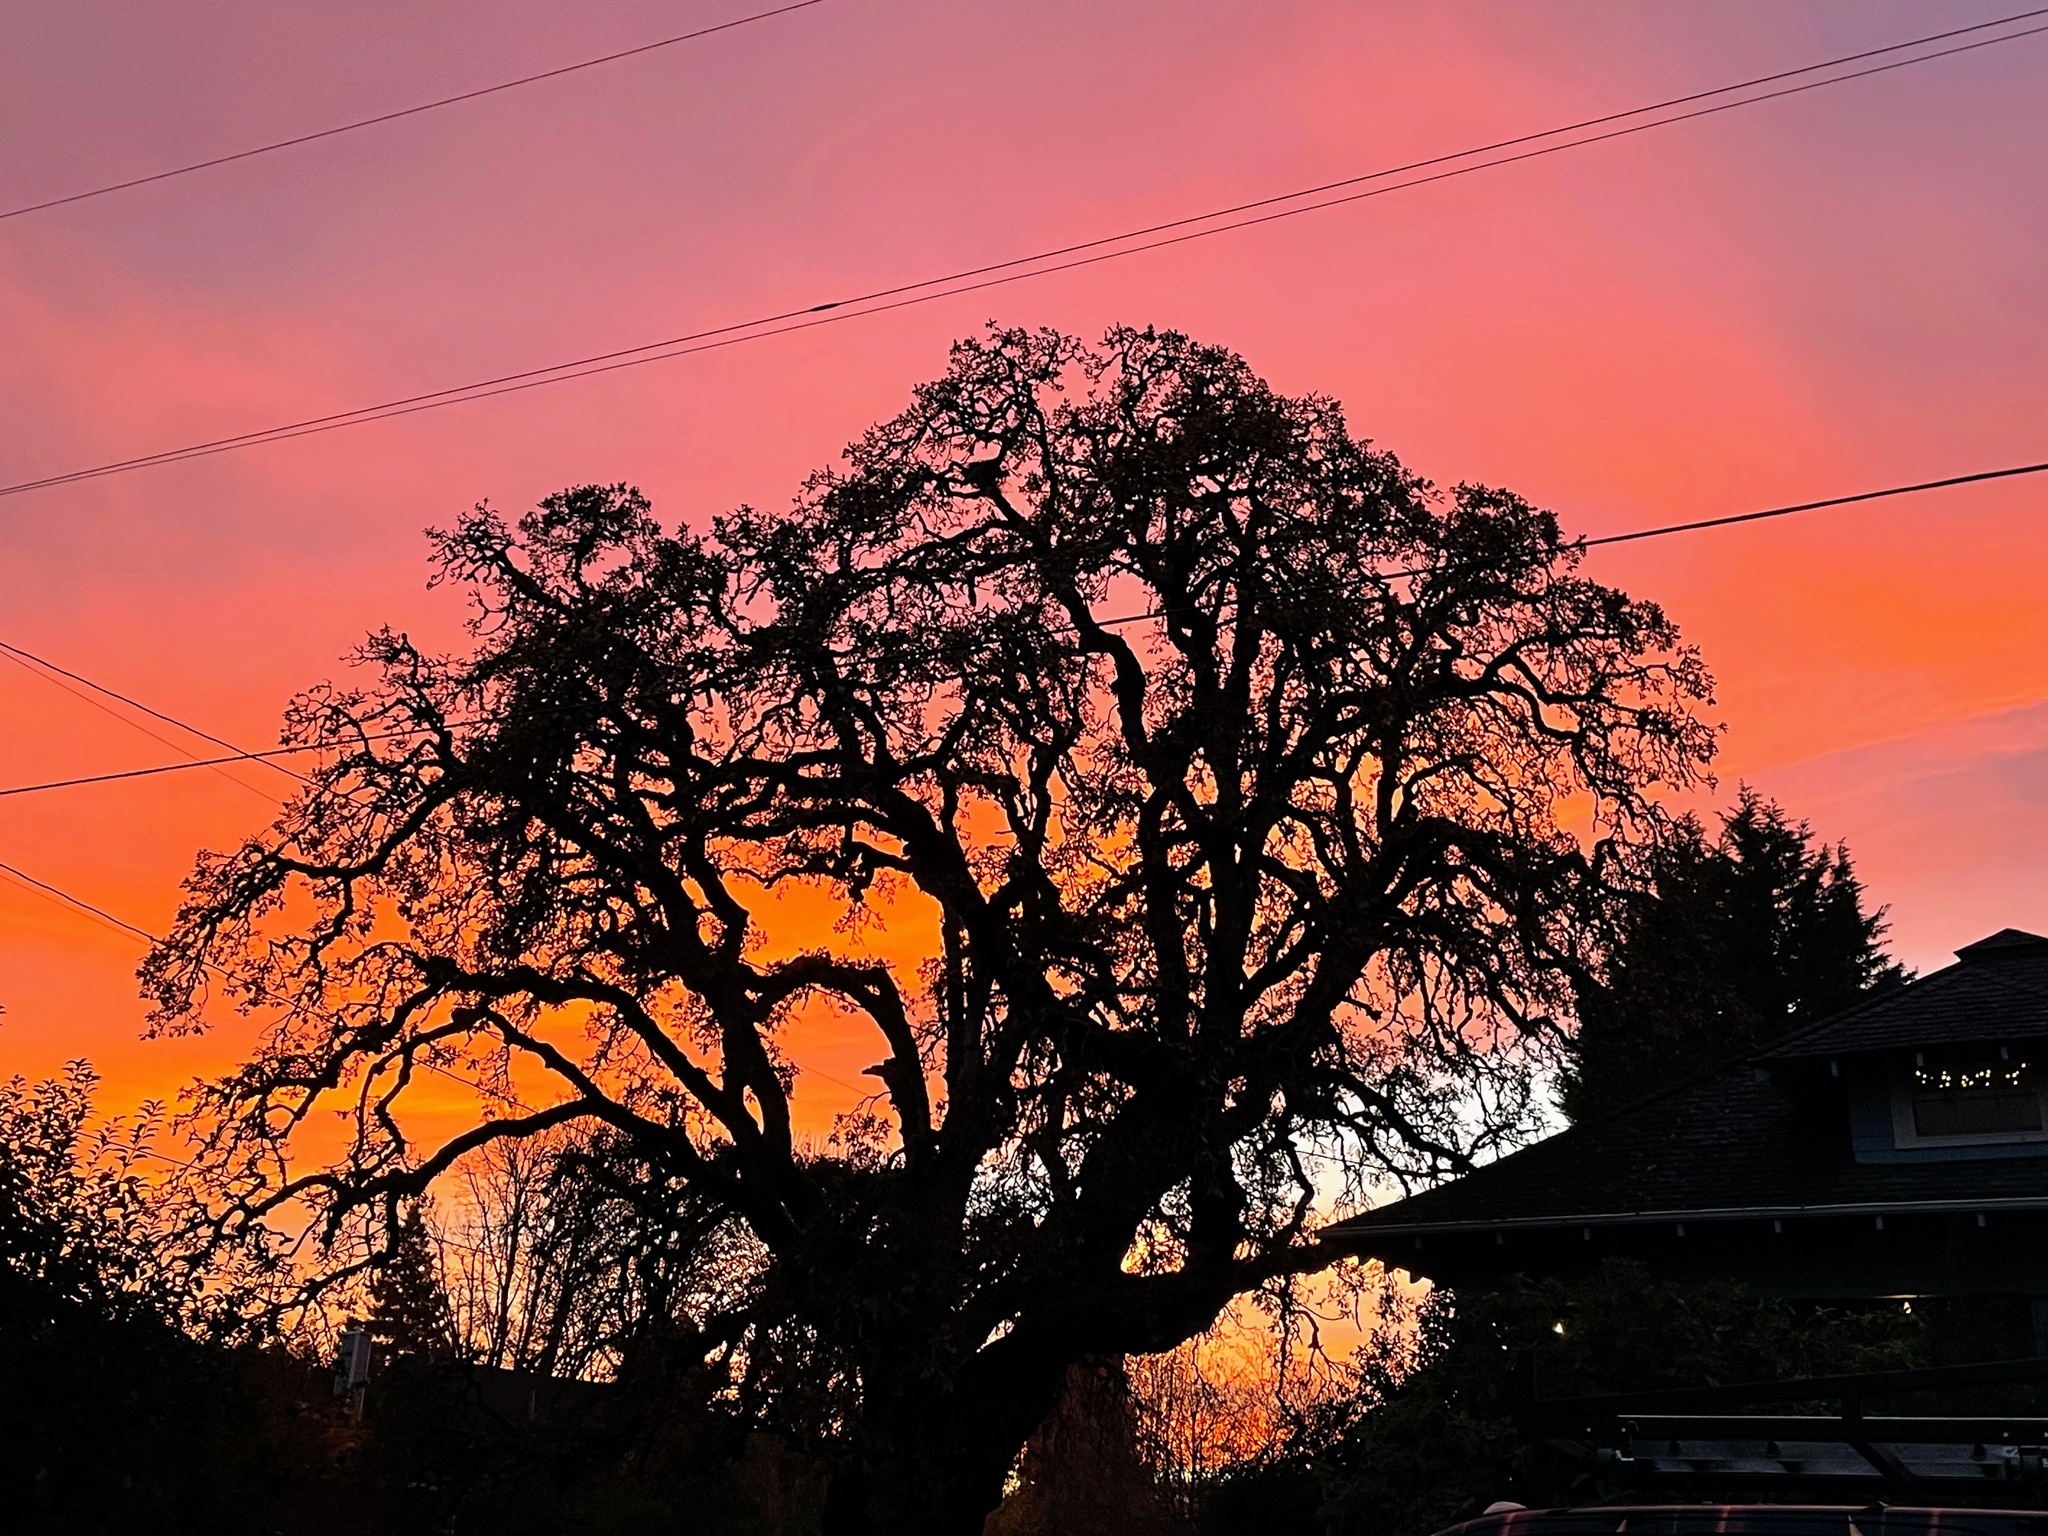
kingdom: Plantae
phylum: Tracheophyta
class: Magnoliopsida
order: Fagales
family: Fagaceae
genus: Quercus
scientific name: Quercus garryana
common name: Garry oak
